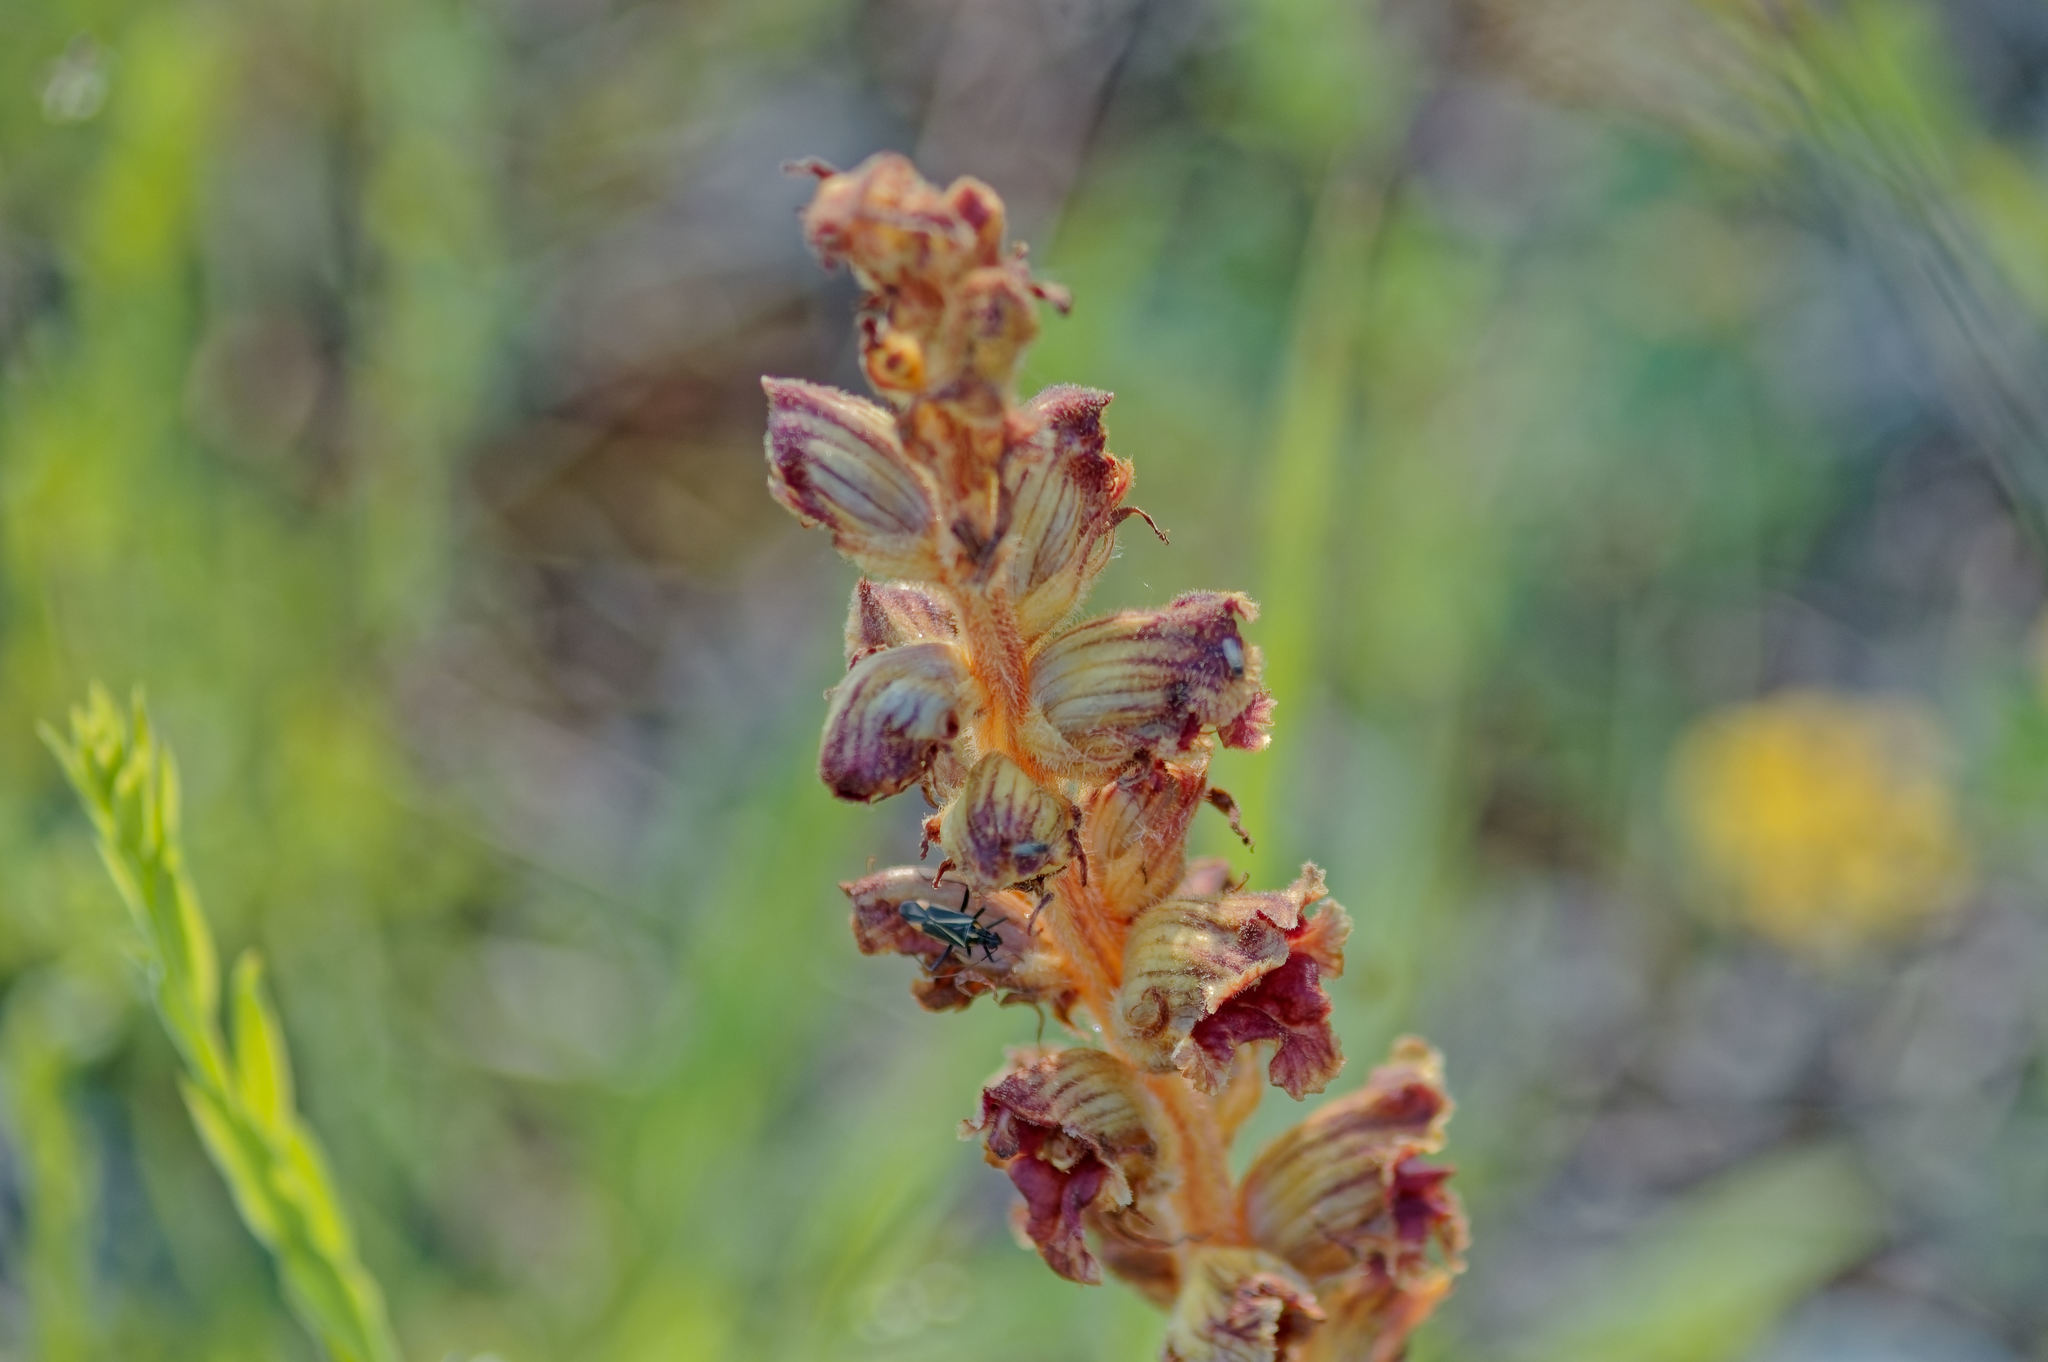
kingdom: Plantae
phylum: Tracheophyta
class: Magnoliopsida
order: Lamiales
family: Orobanchaceae
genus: Orobanche
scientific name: Orobanche gracilis
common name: Slender broomrape
